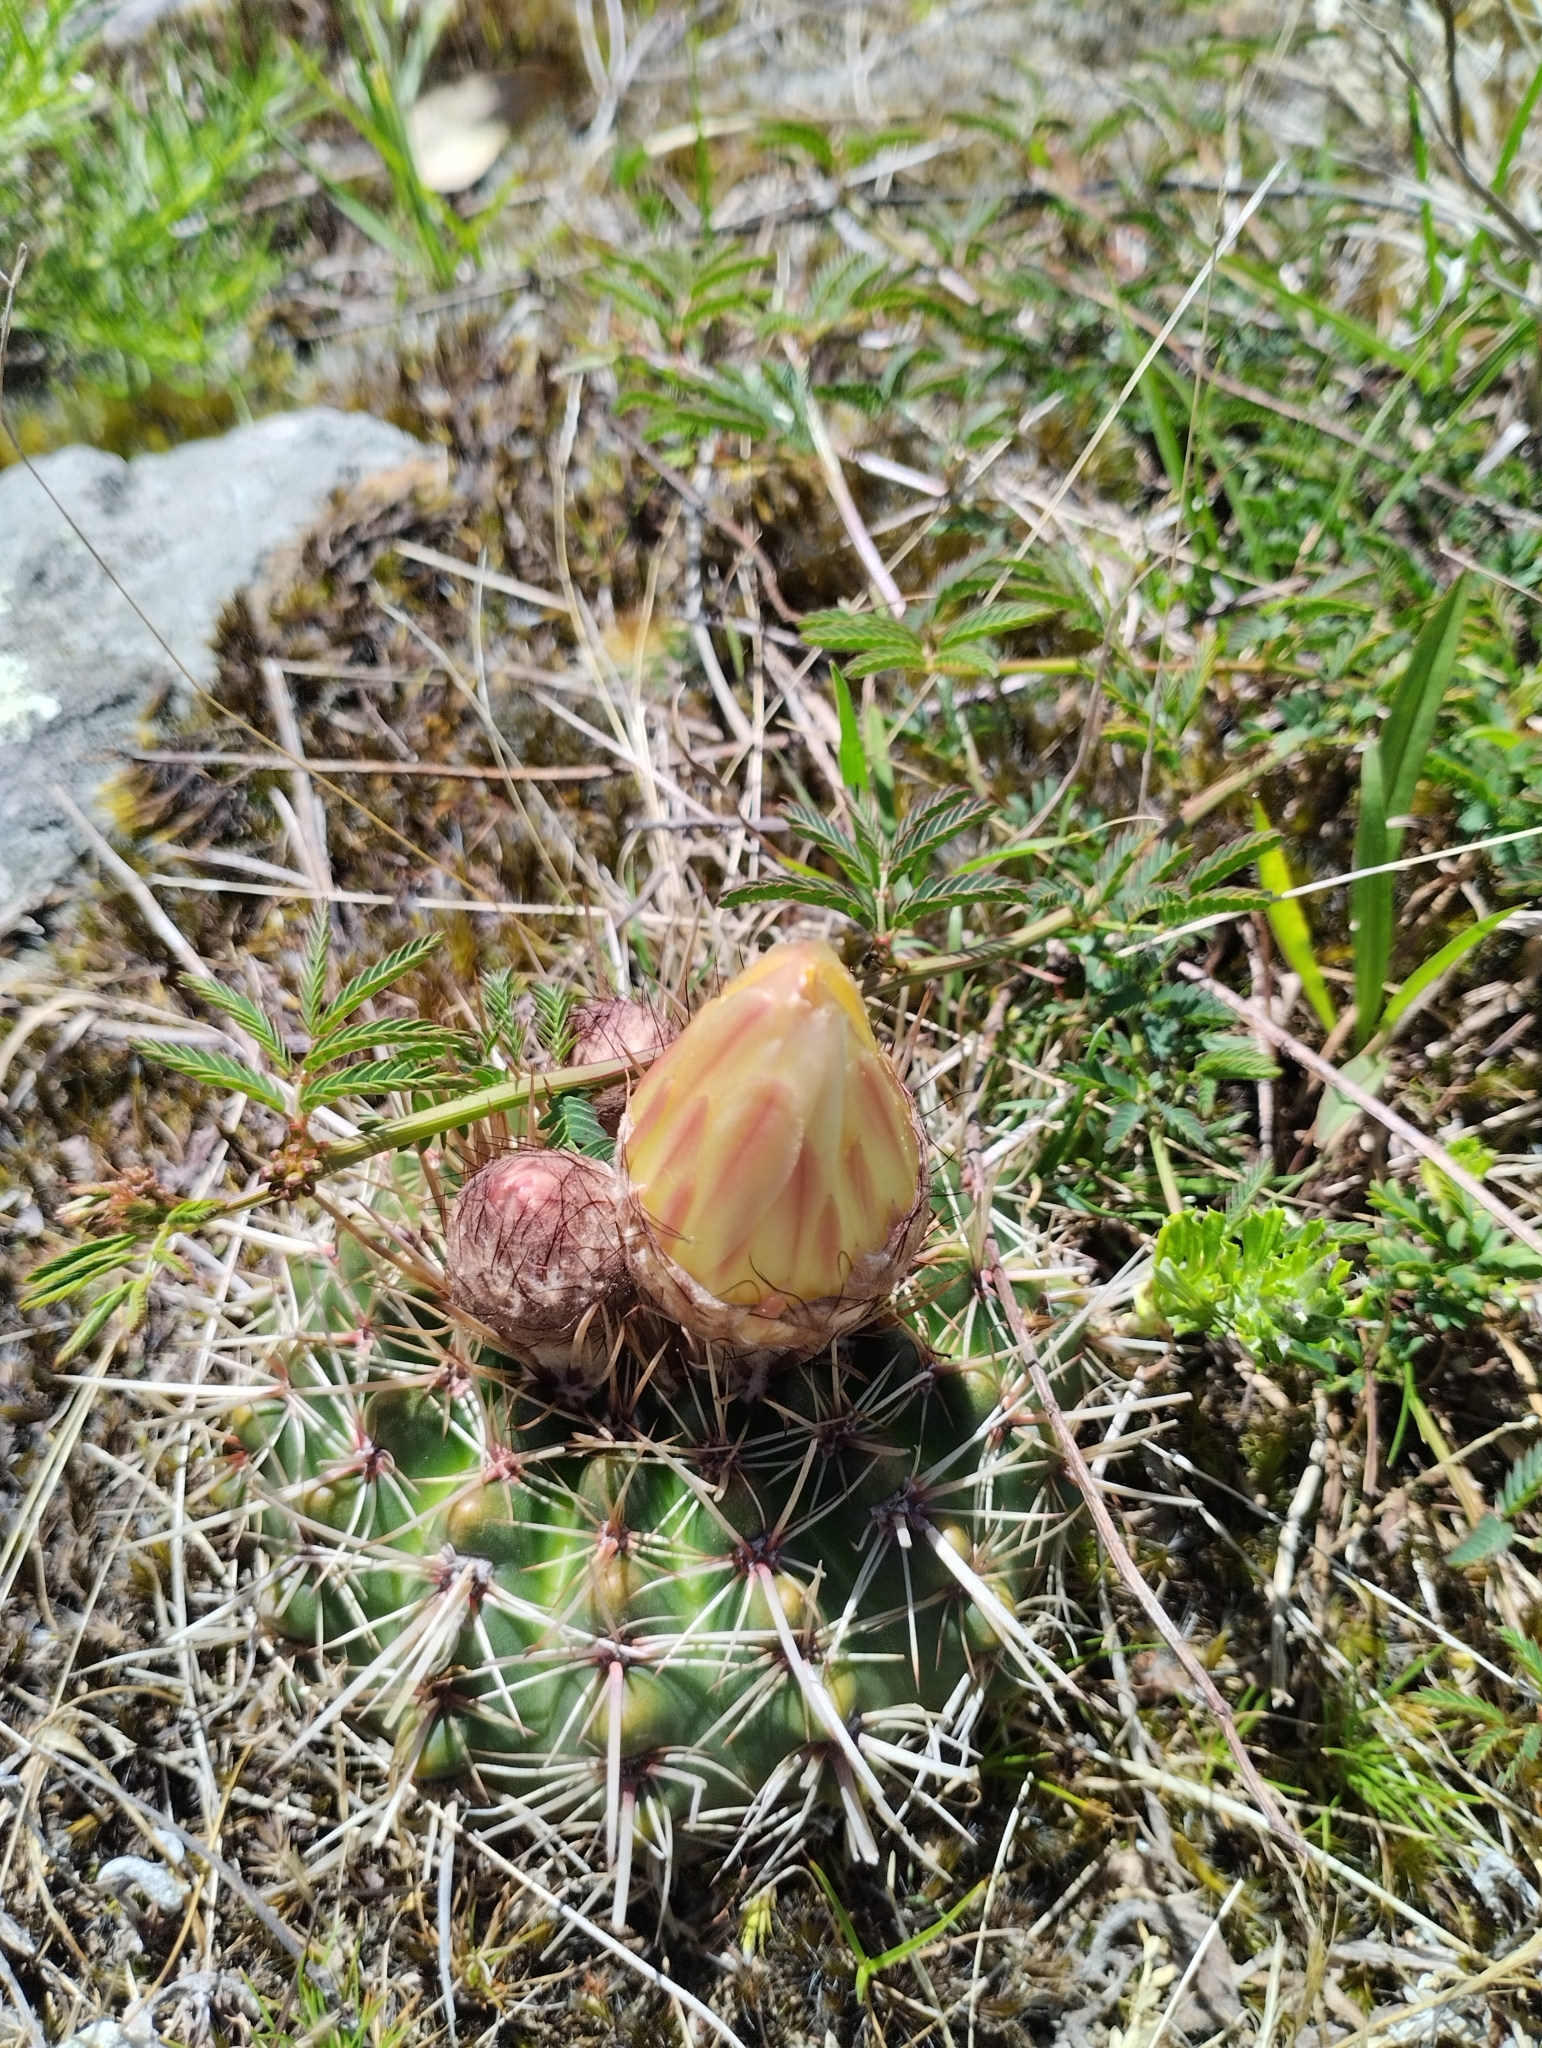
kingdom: Plantae
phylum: Tracheophyta
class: Magnoliopsida
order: Caryophyllales
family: Cactaceae
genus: Parodia
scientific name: Parodia mammulosa
